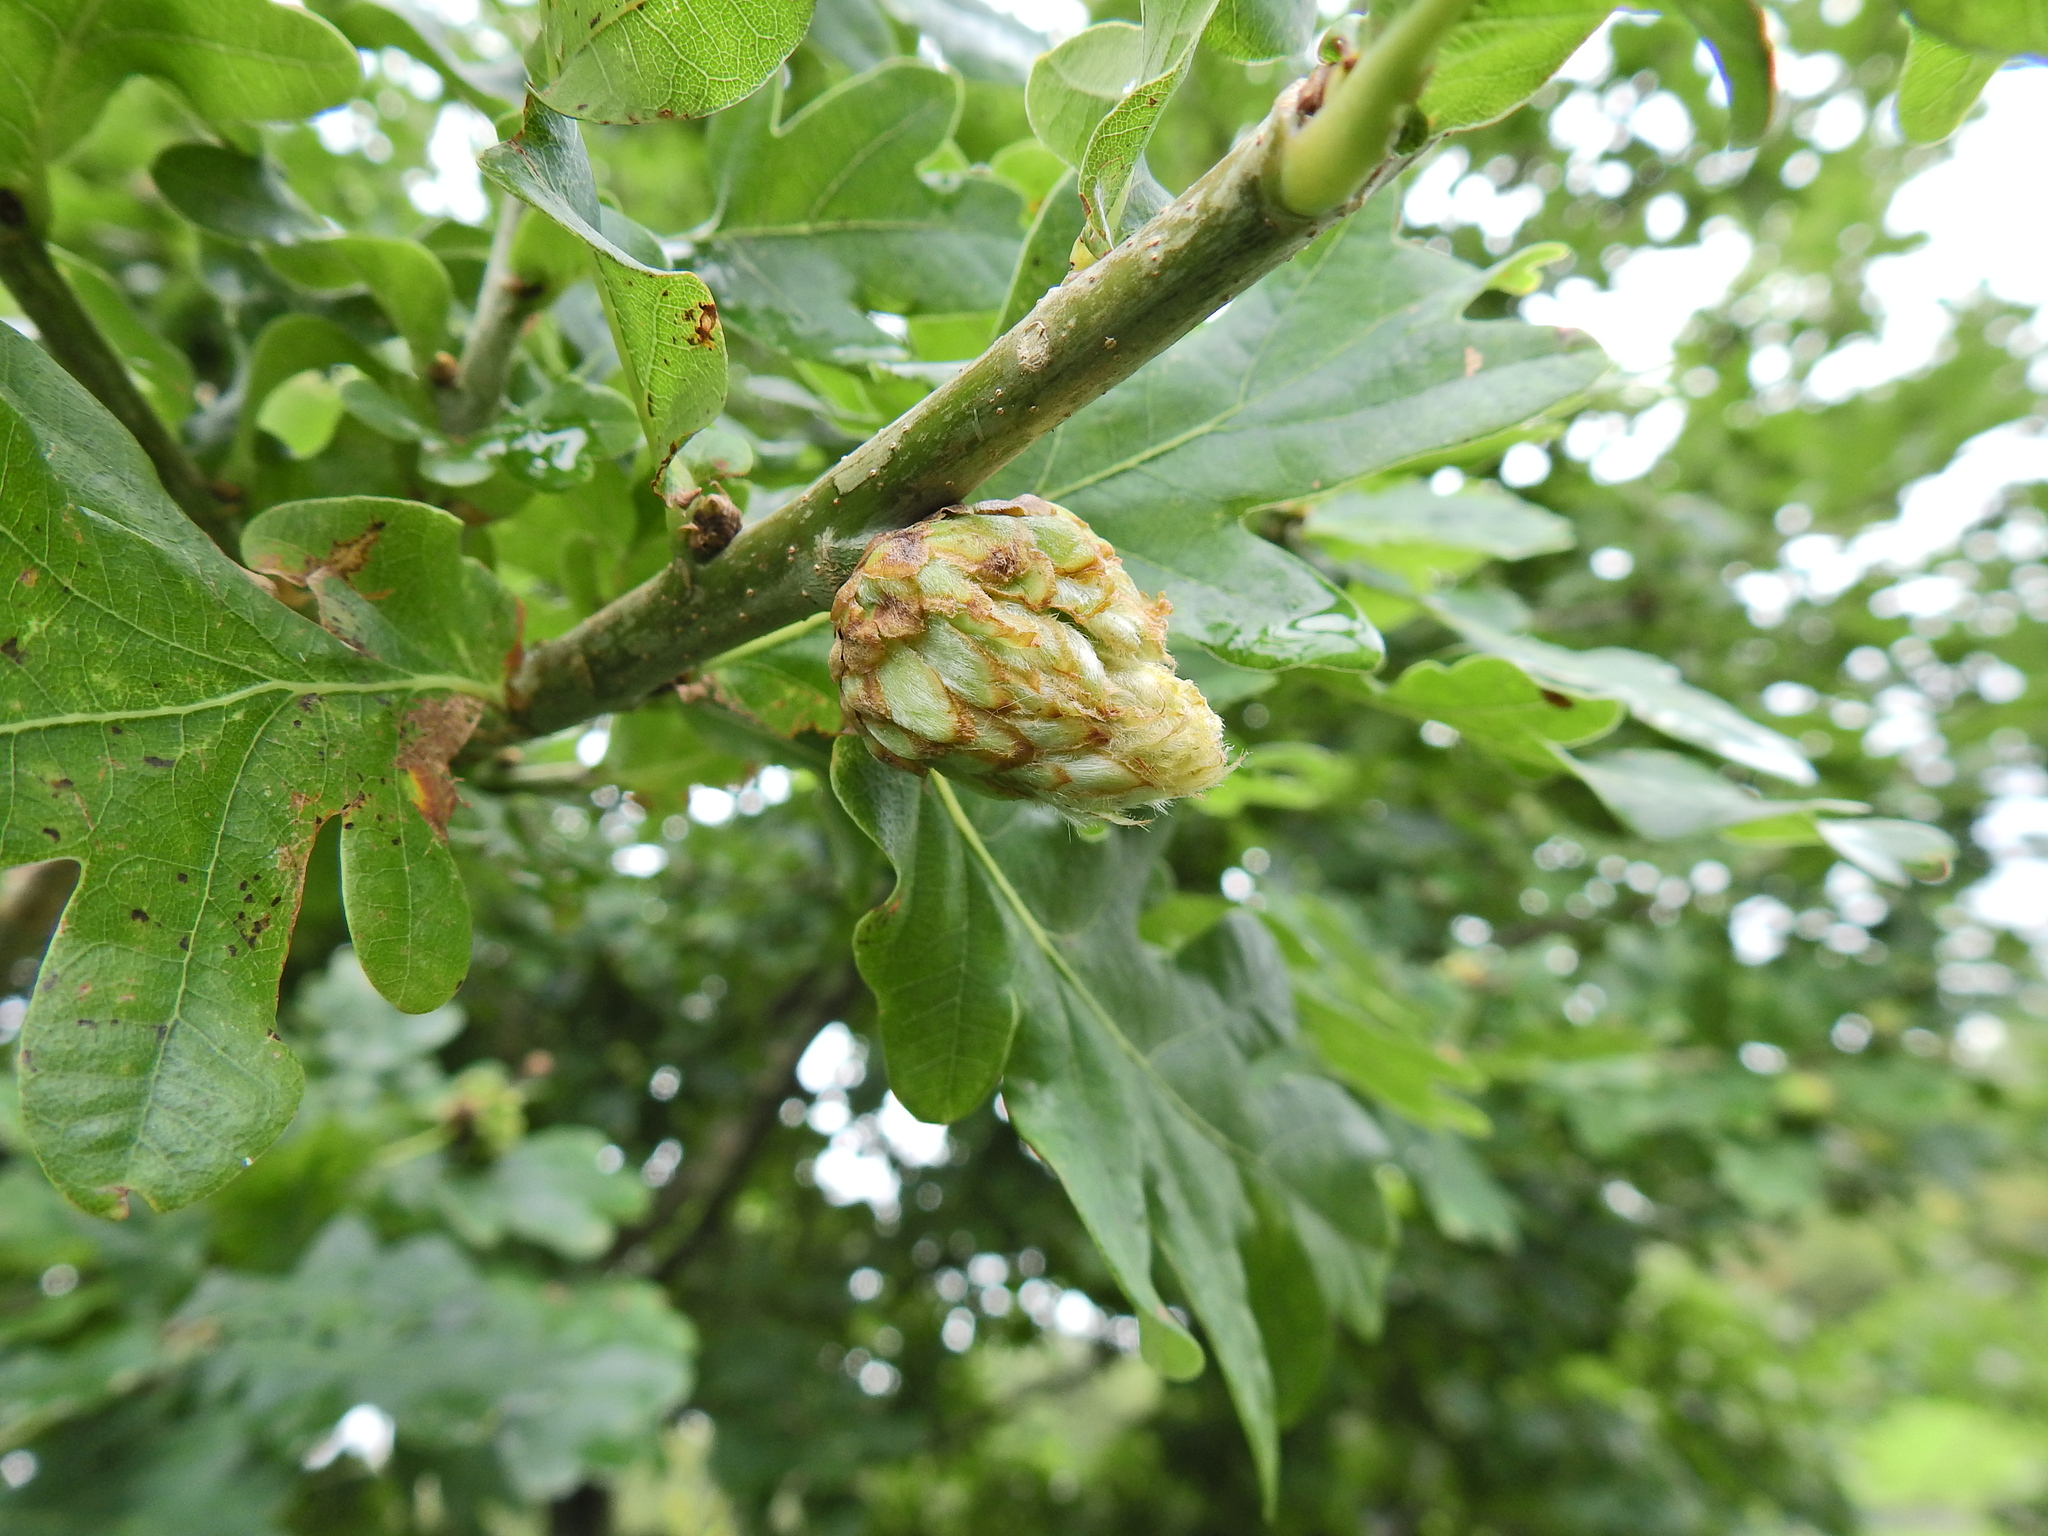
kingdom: Animalia
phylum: Arthropoda
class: Insecta
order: Hymenoptera
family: Cynipidae
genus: Andricus
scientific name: Andricus foecundatrix
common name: Artichoke gall
